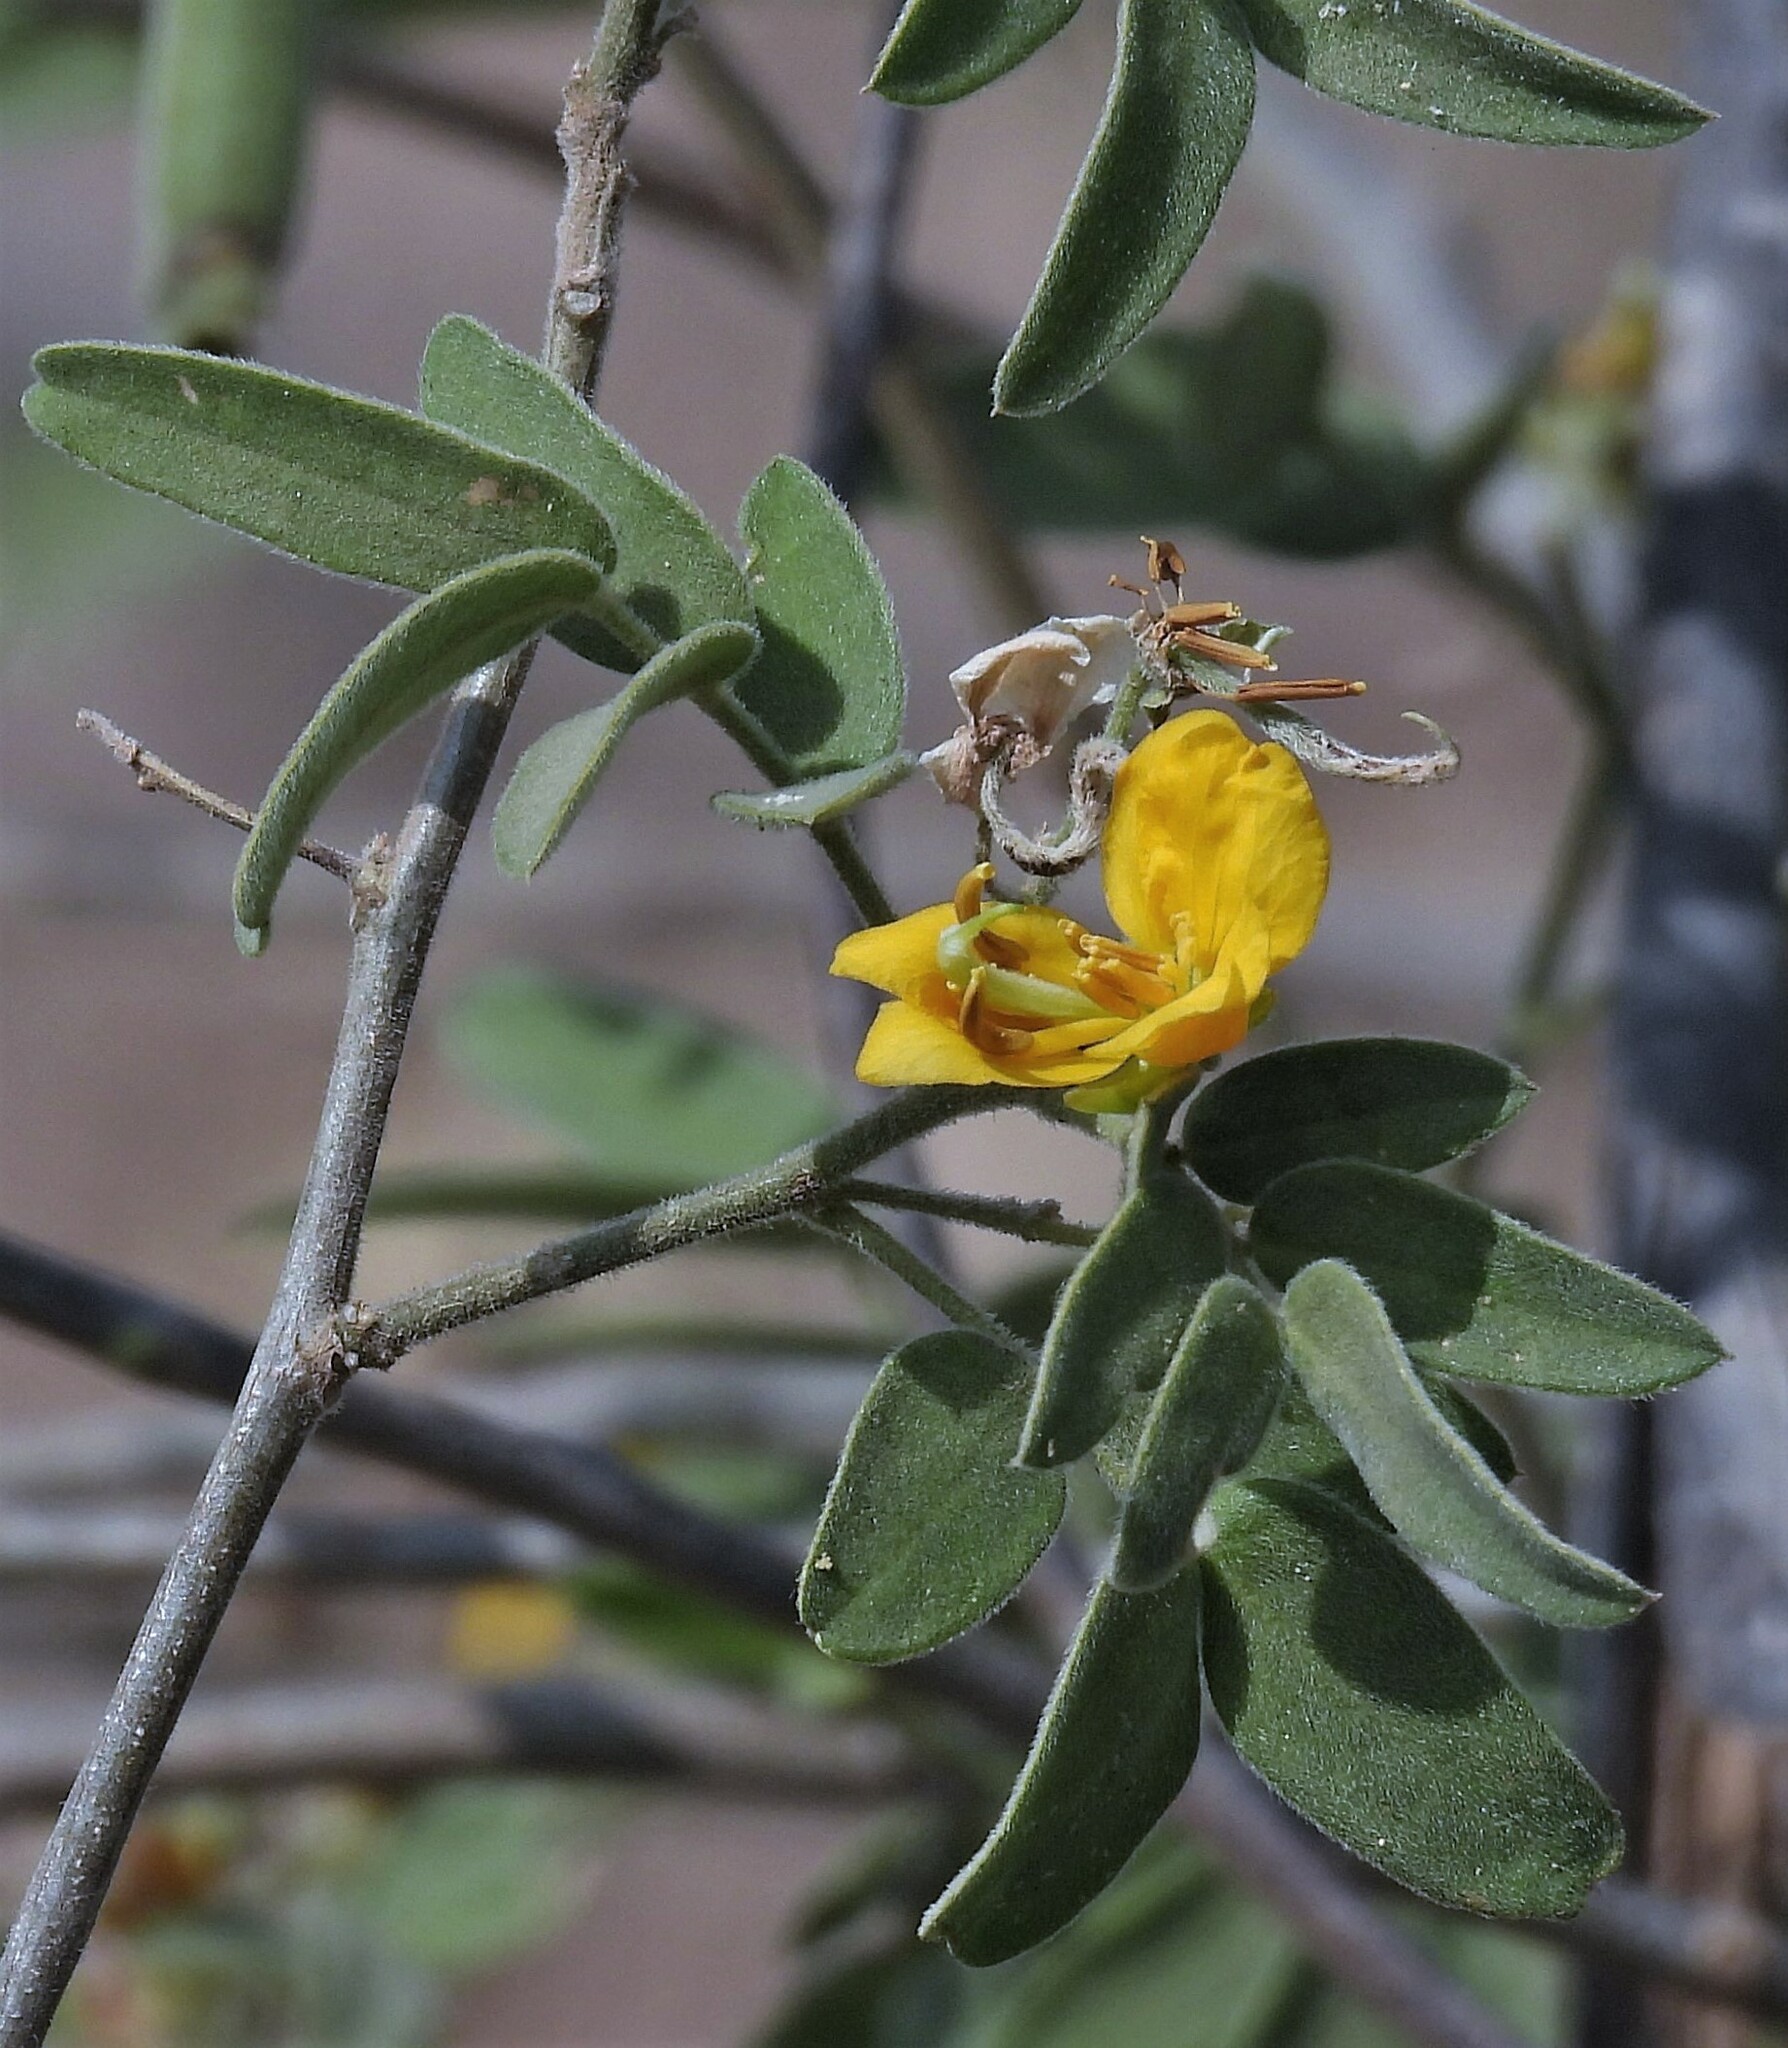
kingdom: Plantae
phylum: Tracheophyta
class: Magnoliopsida
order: Fabales
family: Fabaceae
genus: Senna
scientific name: Senna morongii
